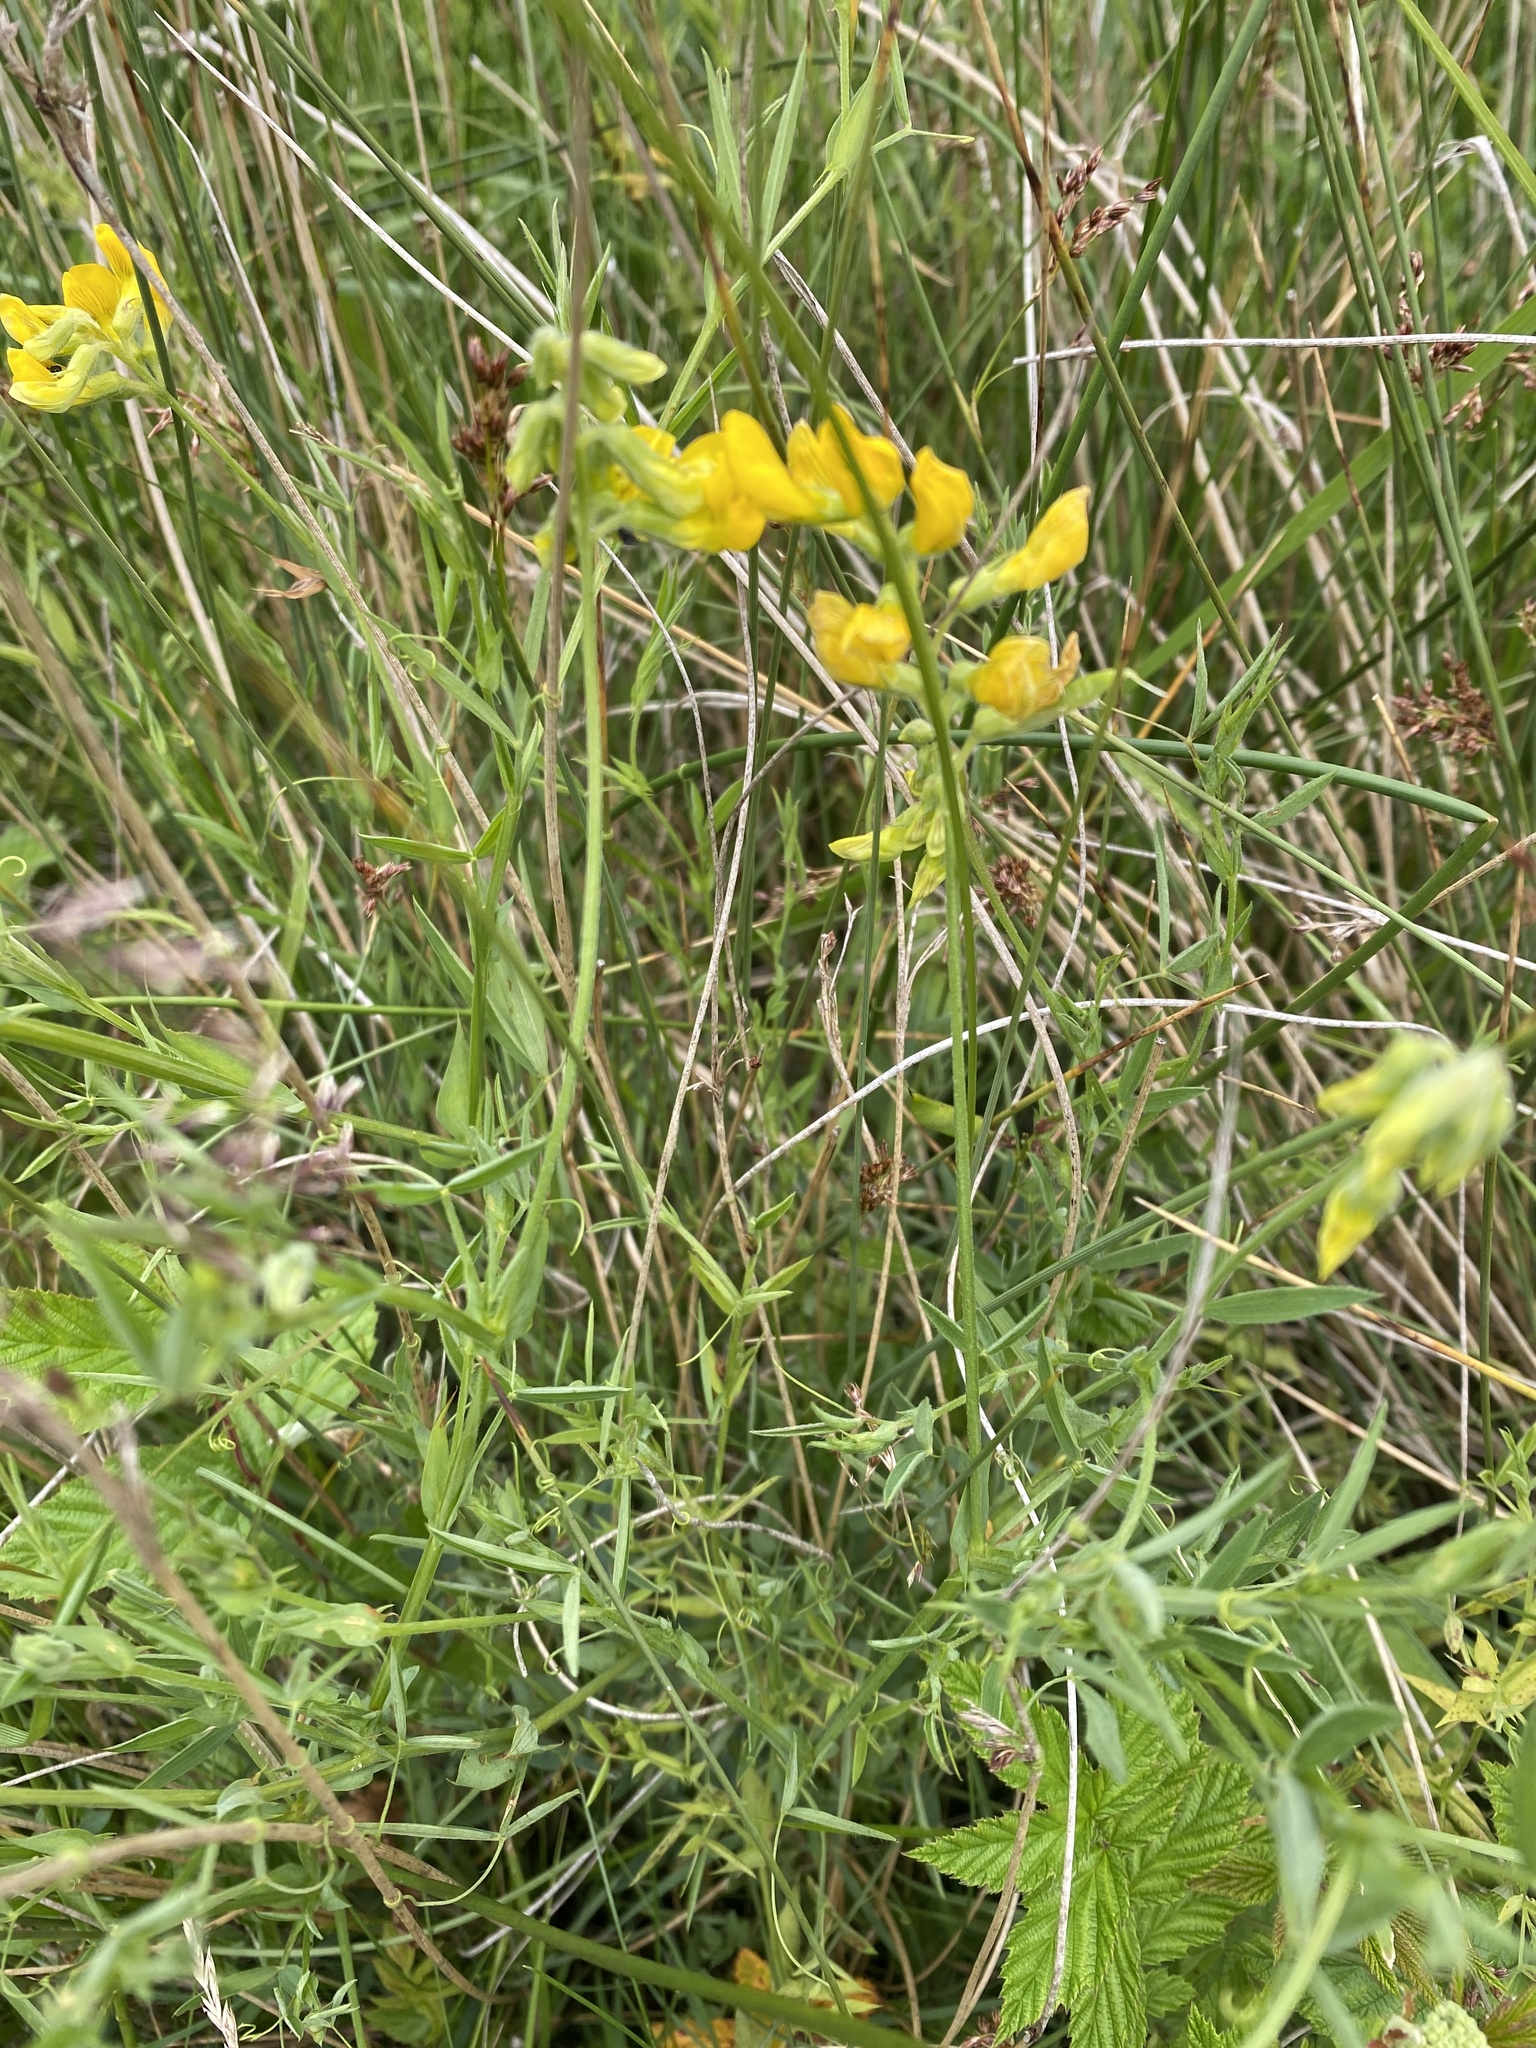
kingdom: Plantae
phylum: Tracheophyta
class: Magnoliopsida
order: Fabales
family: Fabaceae
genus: Lathyrus
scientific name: Lathyrus pratensis
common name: Meadow vetchling
